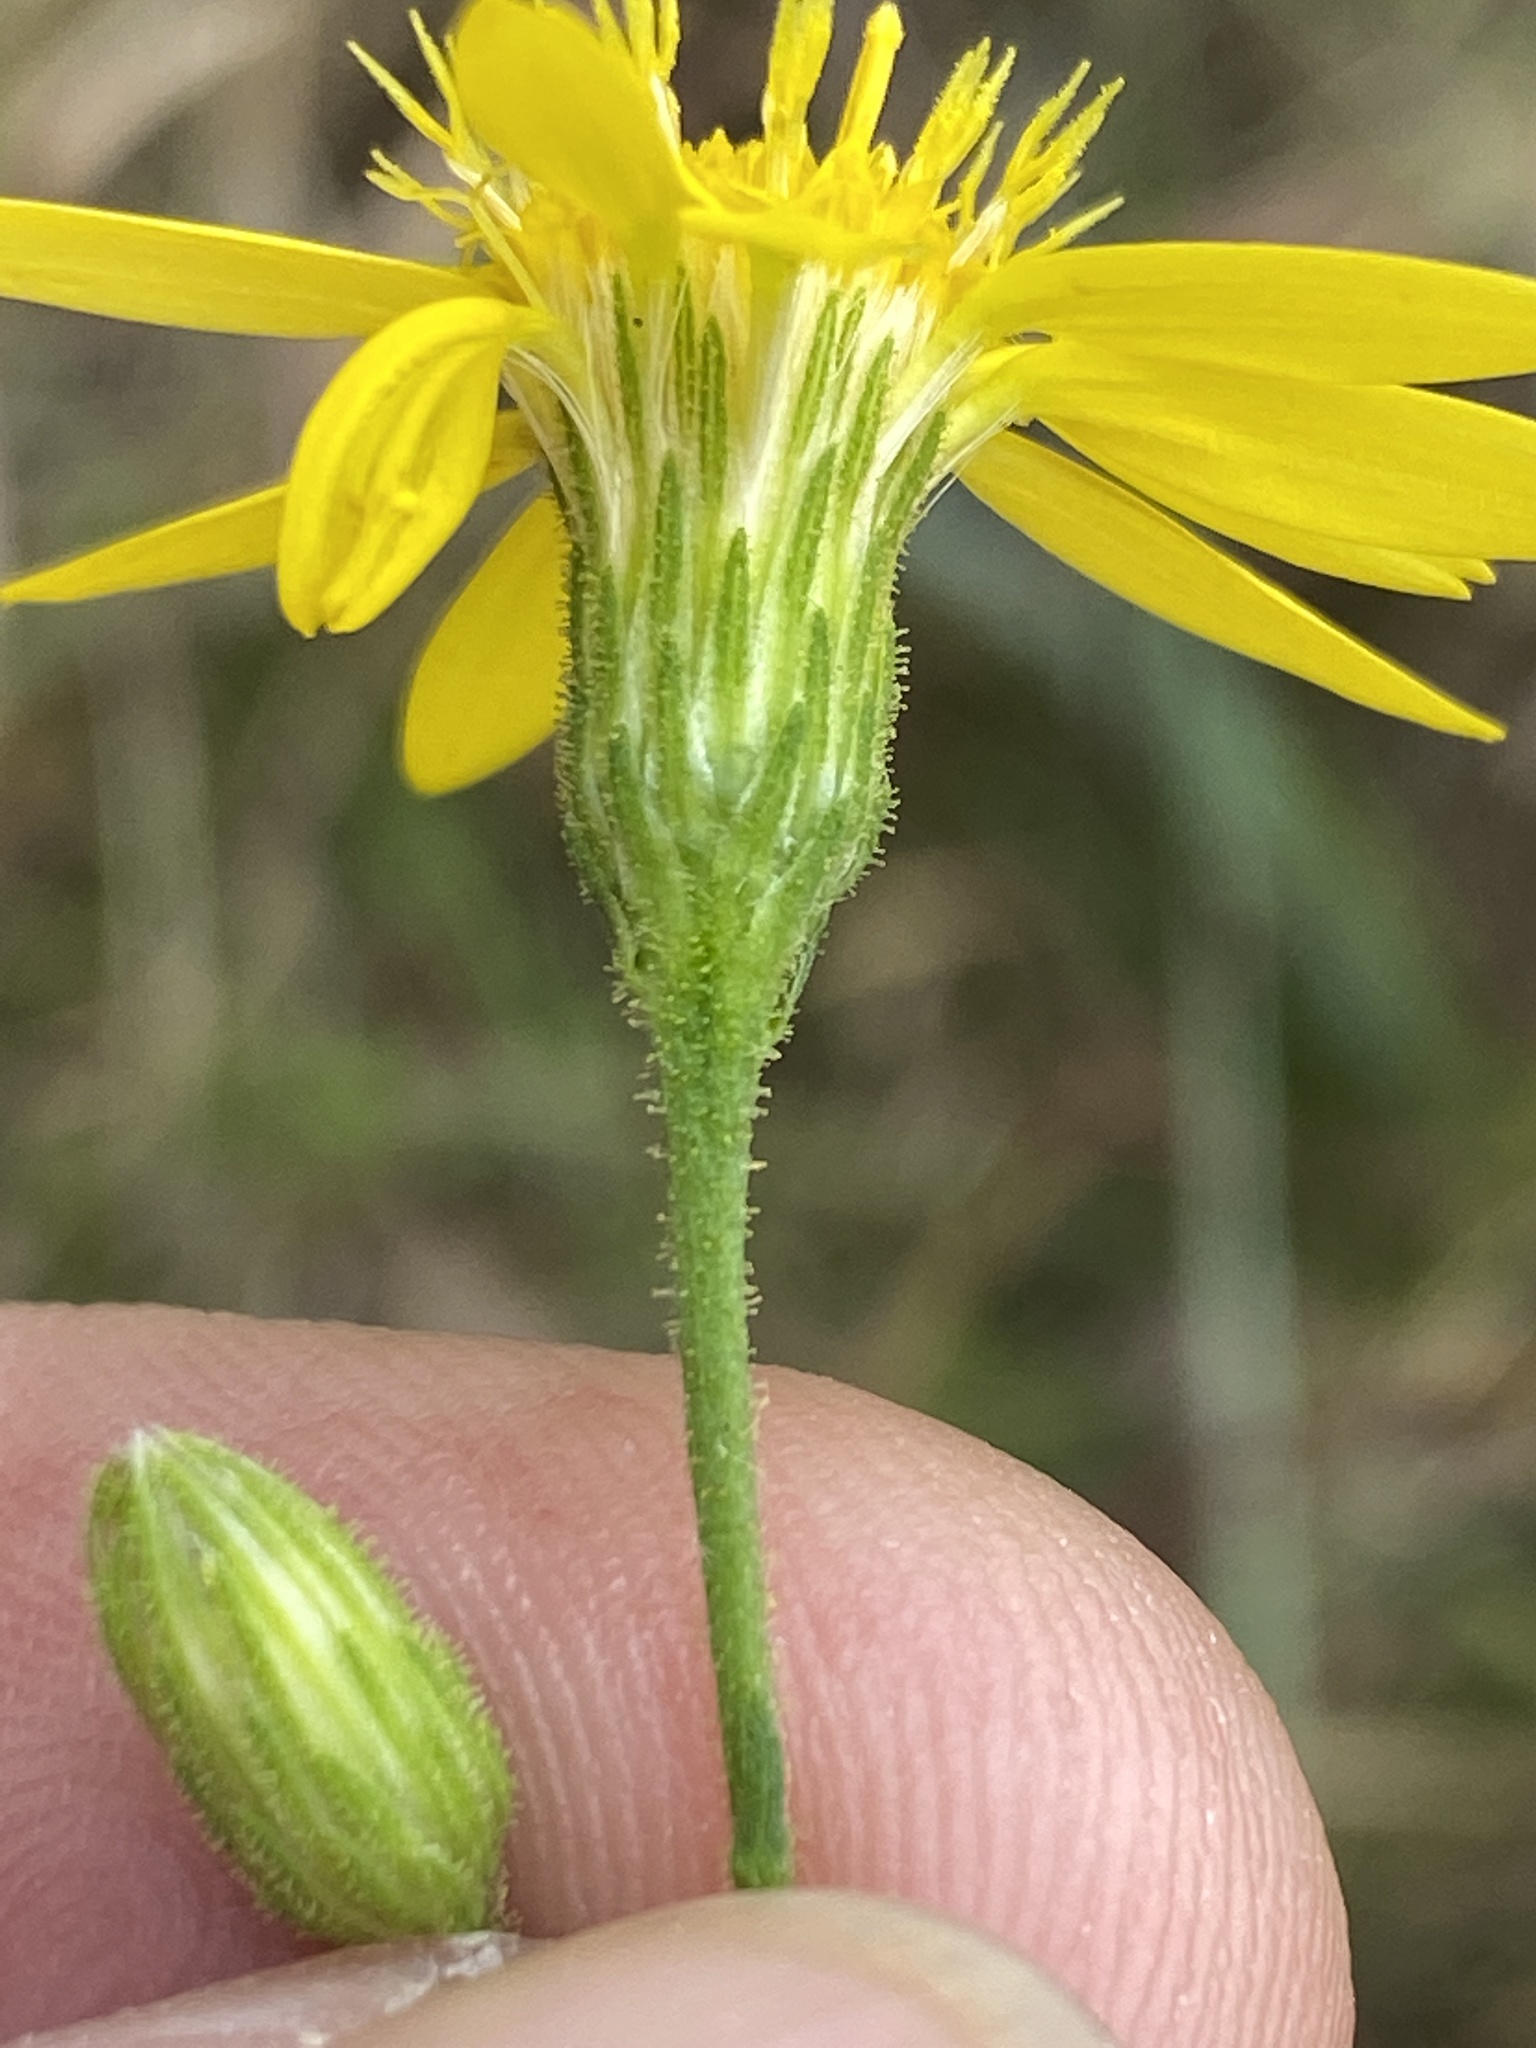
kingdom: Plantae
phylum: Tracheophyta
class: Magnoliopsida
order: Asterales
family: Asteraceae
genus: Pityopsis
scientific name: Pityopsis aspera
